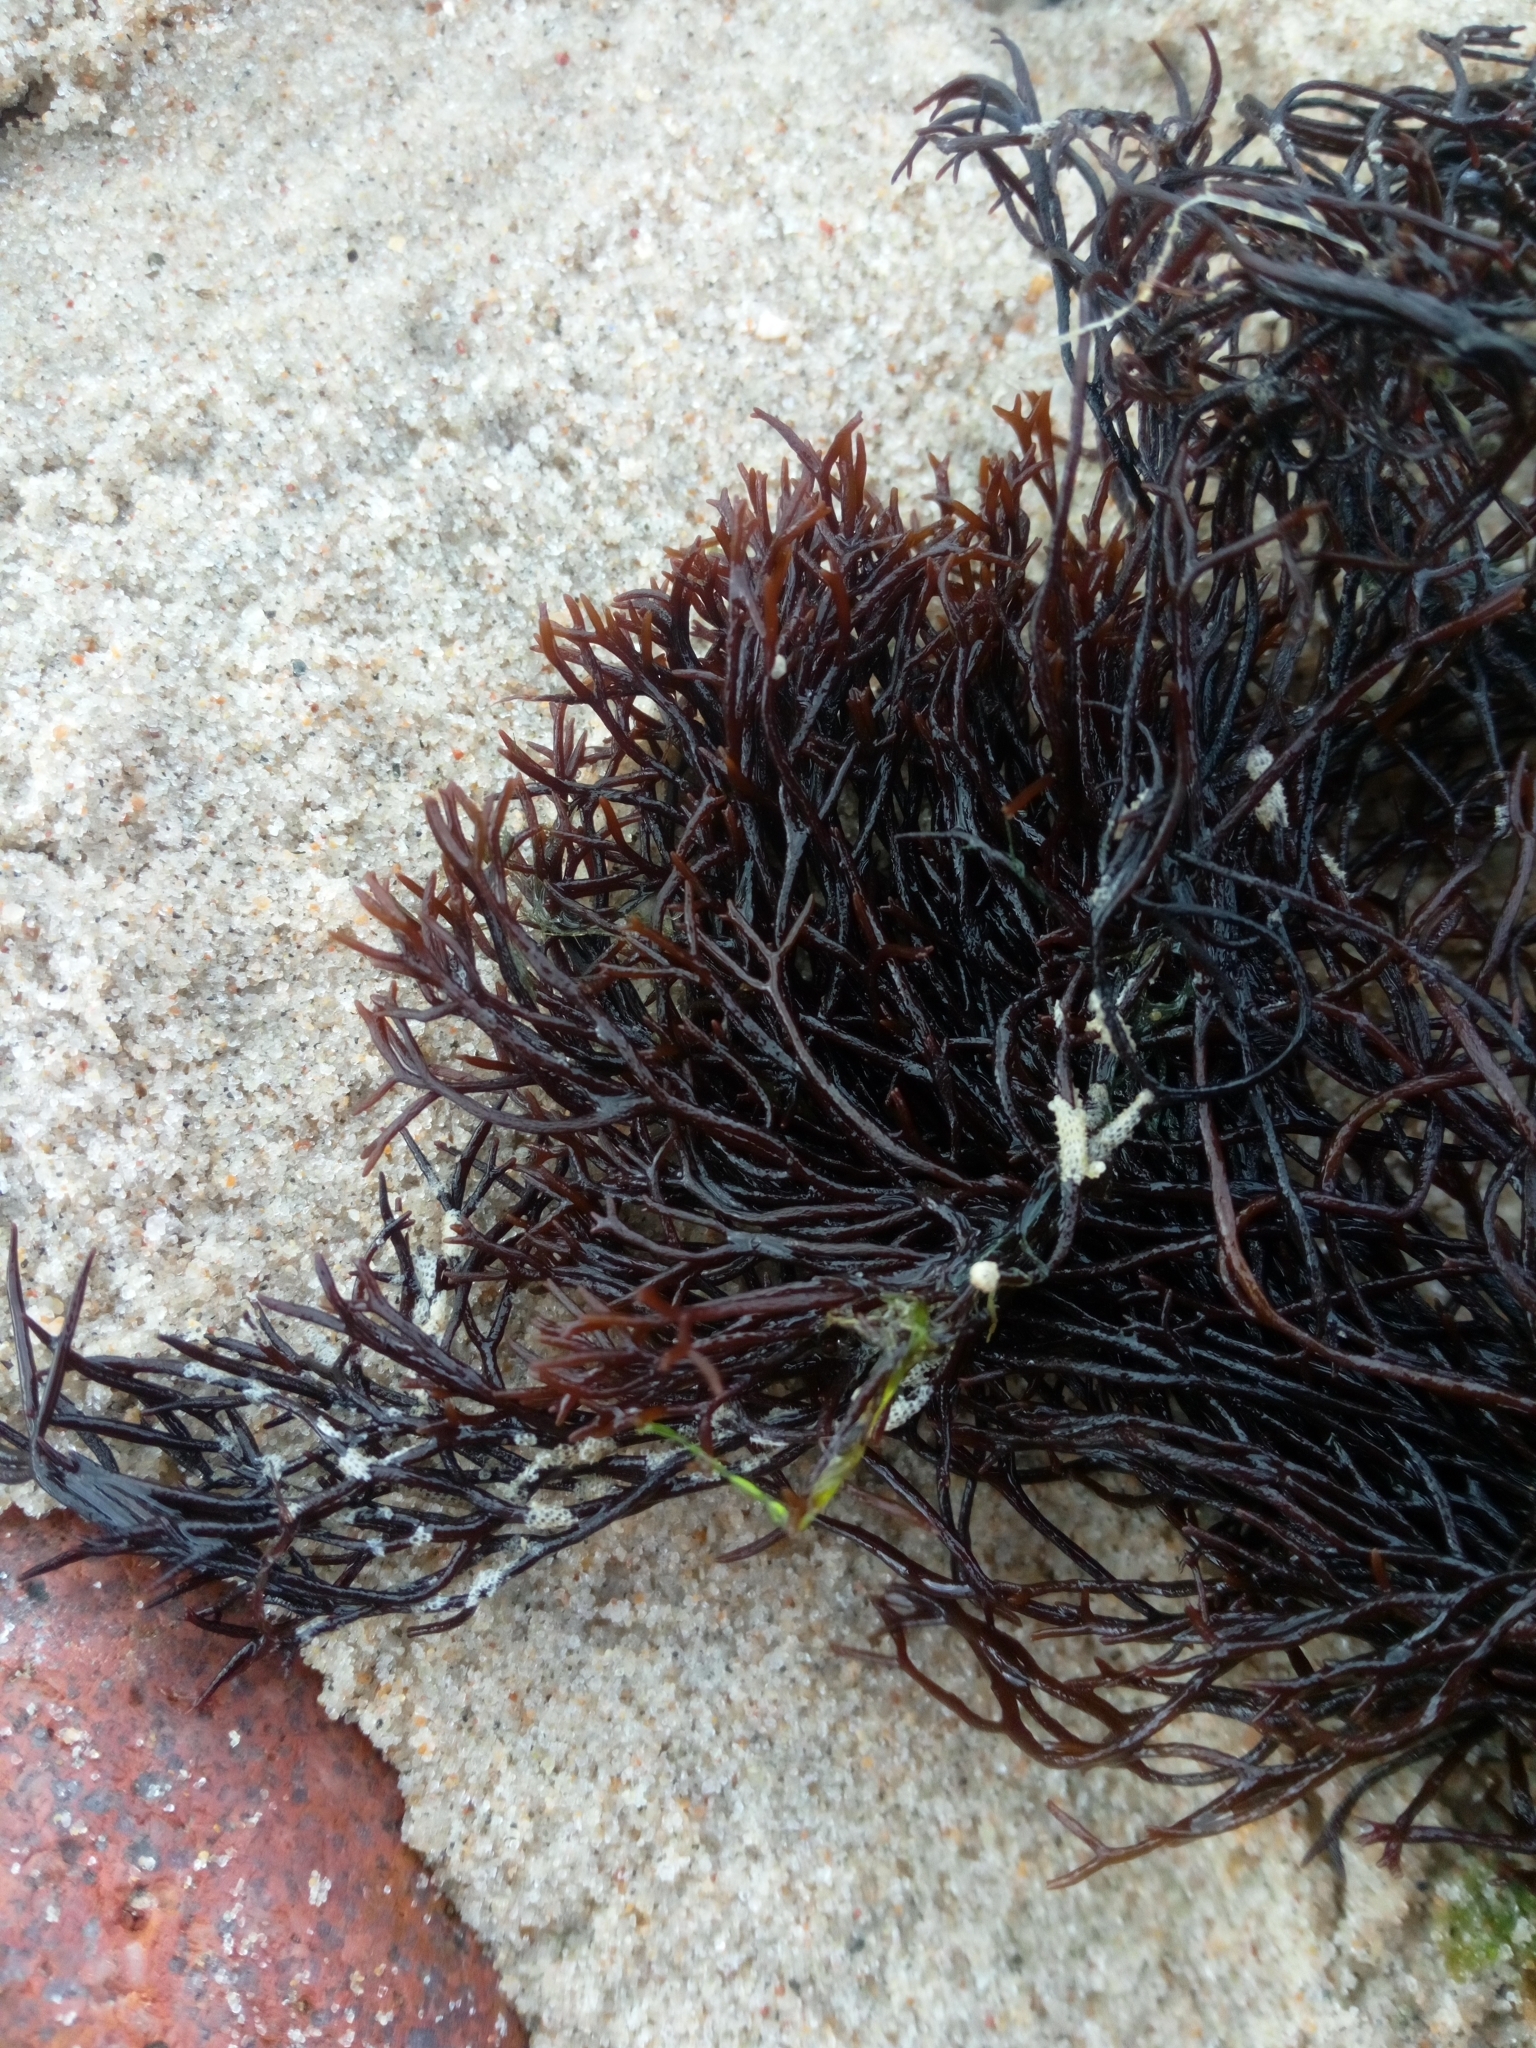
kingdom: Plantae
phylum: Rhodophyta
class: Florideophyceae
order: Gigartinales
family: Furcellariaceae
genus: Furcellaria
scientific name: Furcellaria lumbricalis
